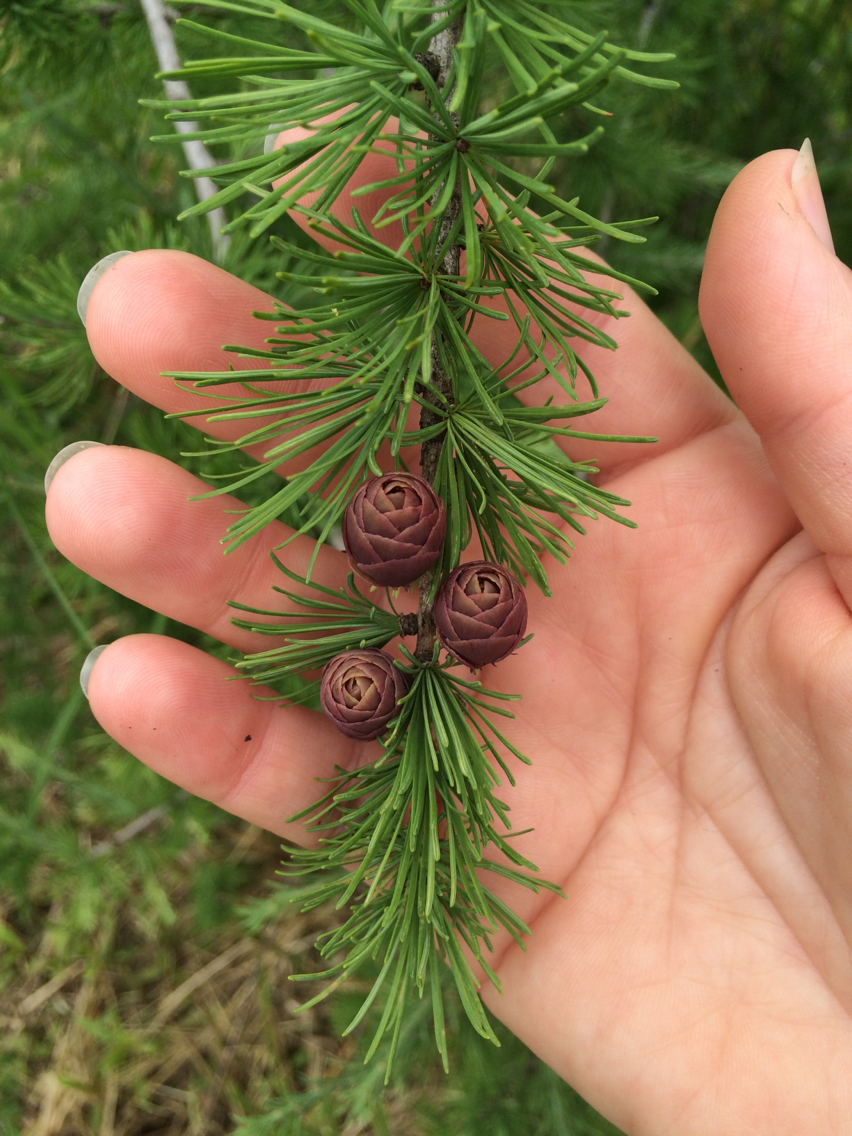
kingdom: Plantae
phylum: Tracheophyta
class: Pinopsida
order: Pinales
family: Pinaceae
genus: Larix
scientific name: Larix decidua
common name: European larch
